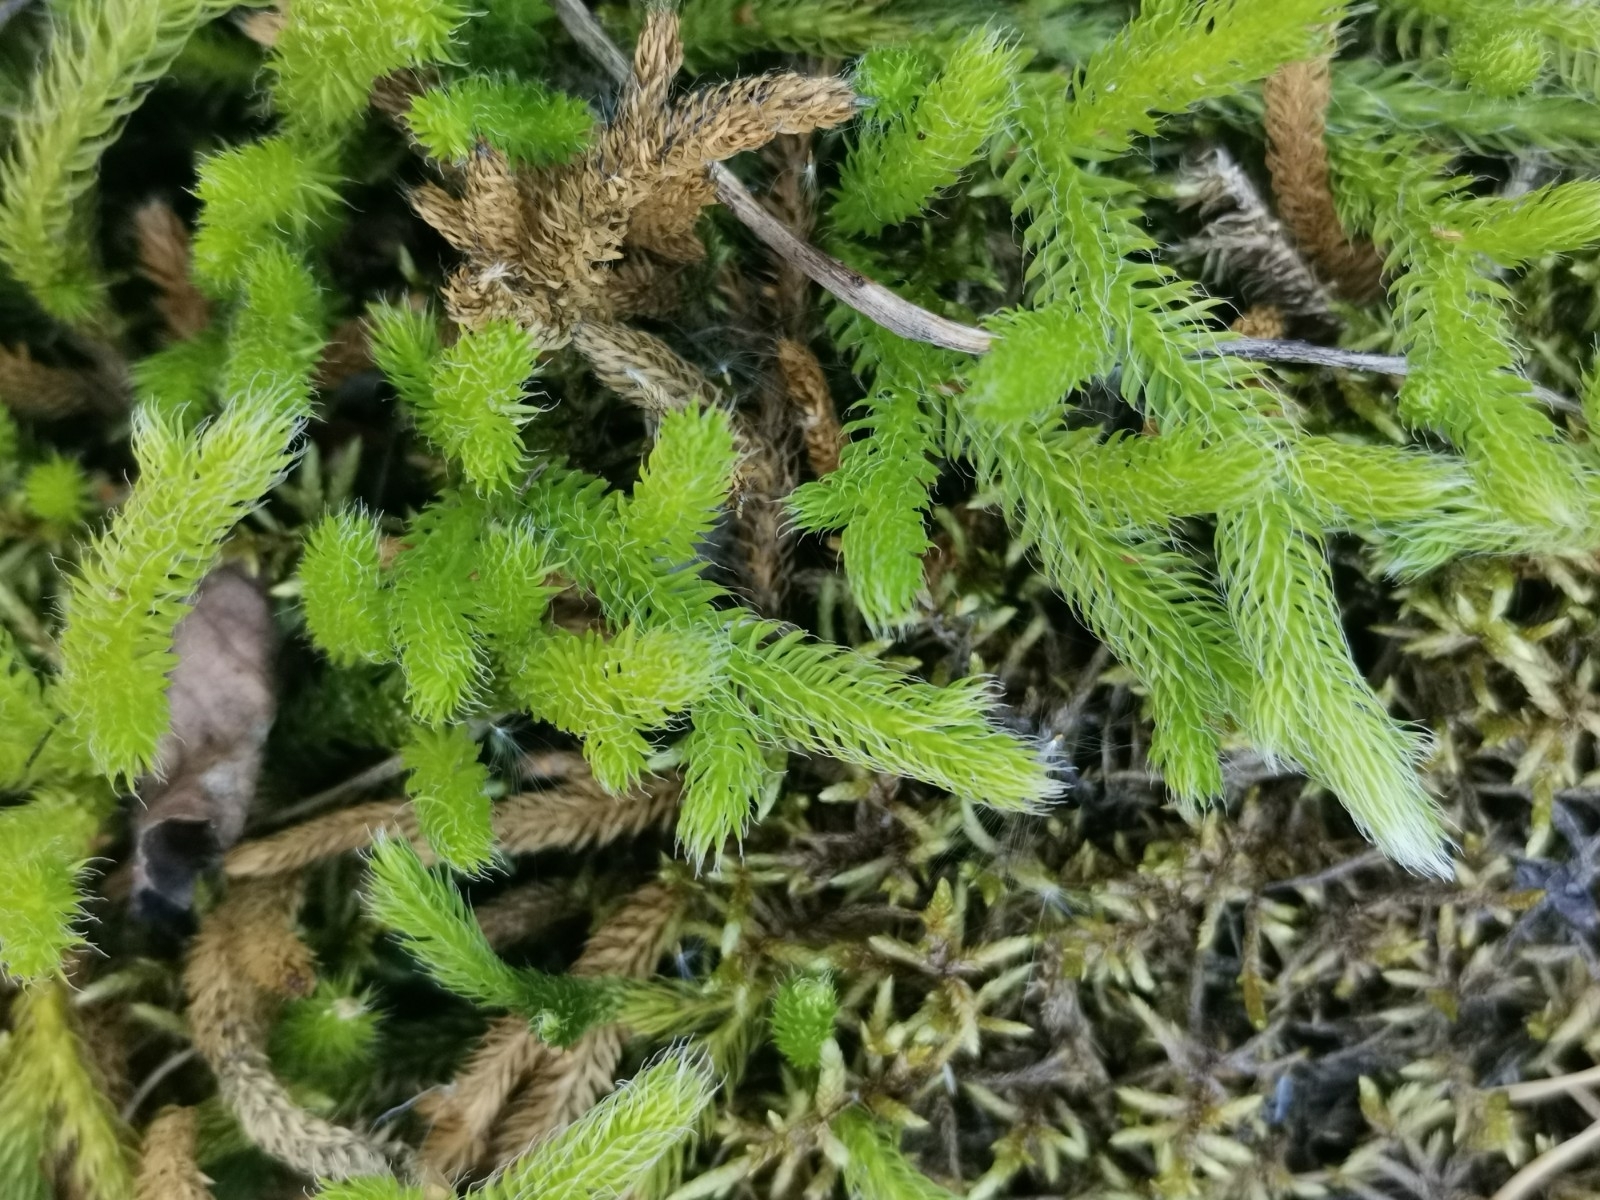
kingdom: Plantae
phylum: Tracheophyta
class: Lycopodiopsida
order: Lycopodiales
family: Lycopodiaceae
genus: Lycopodium
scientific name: Lycopodium clavatum
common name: Stag's-horn clubmoss
